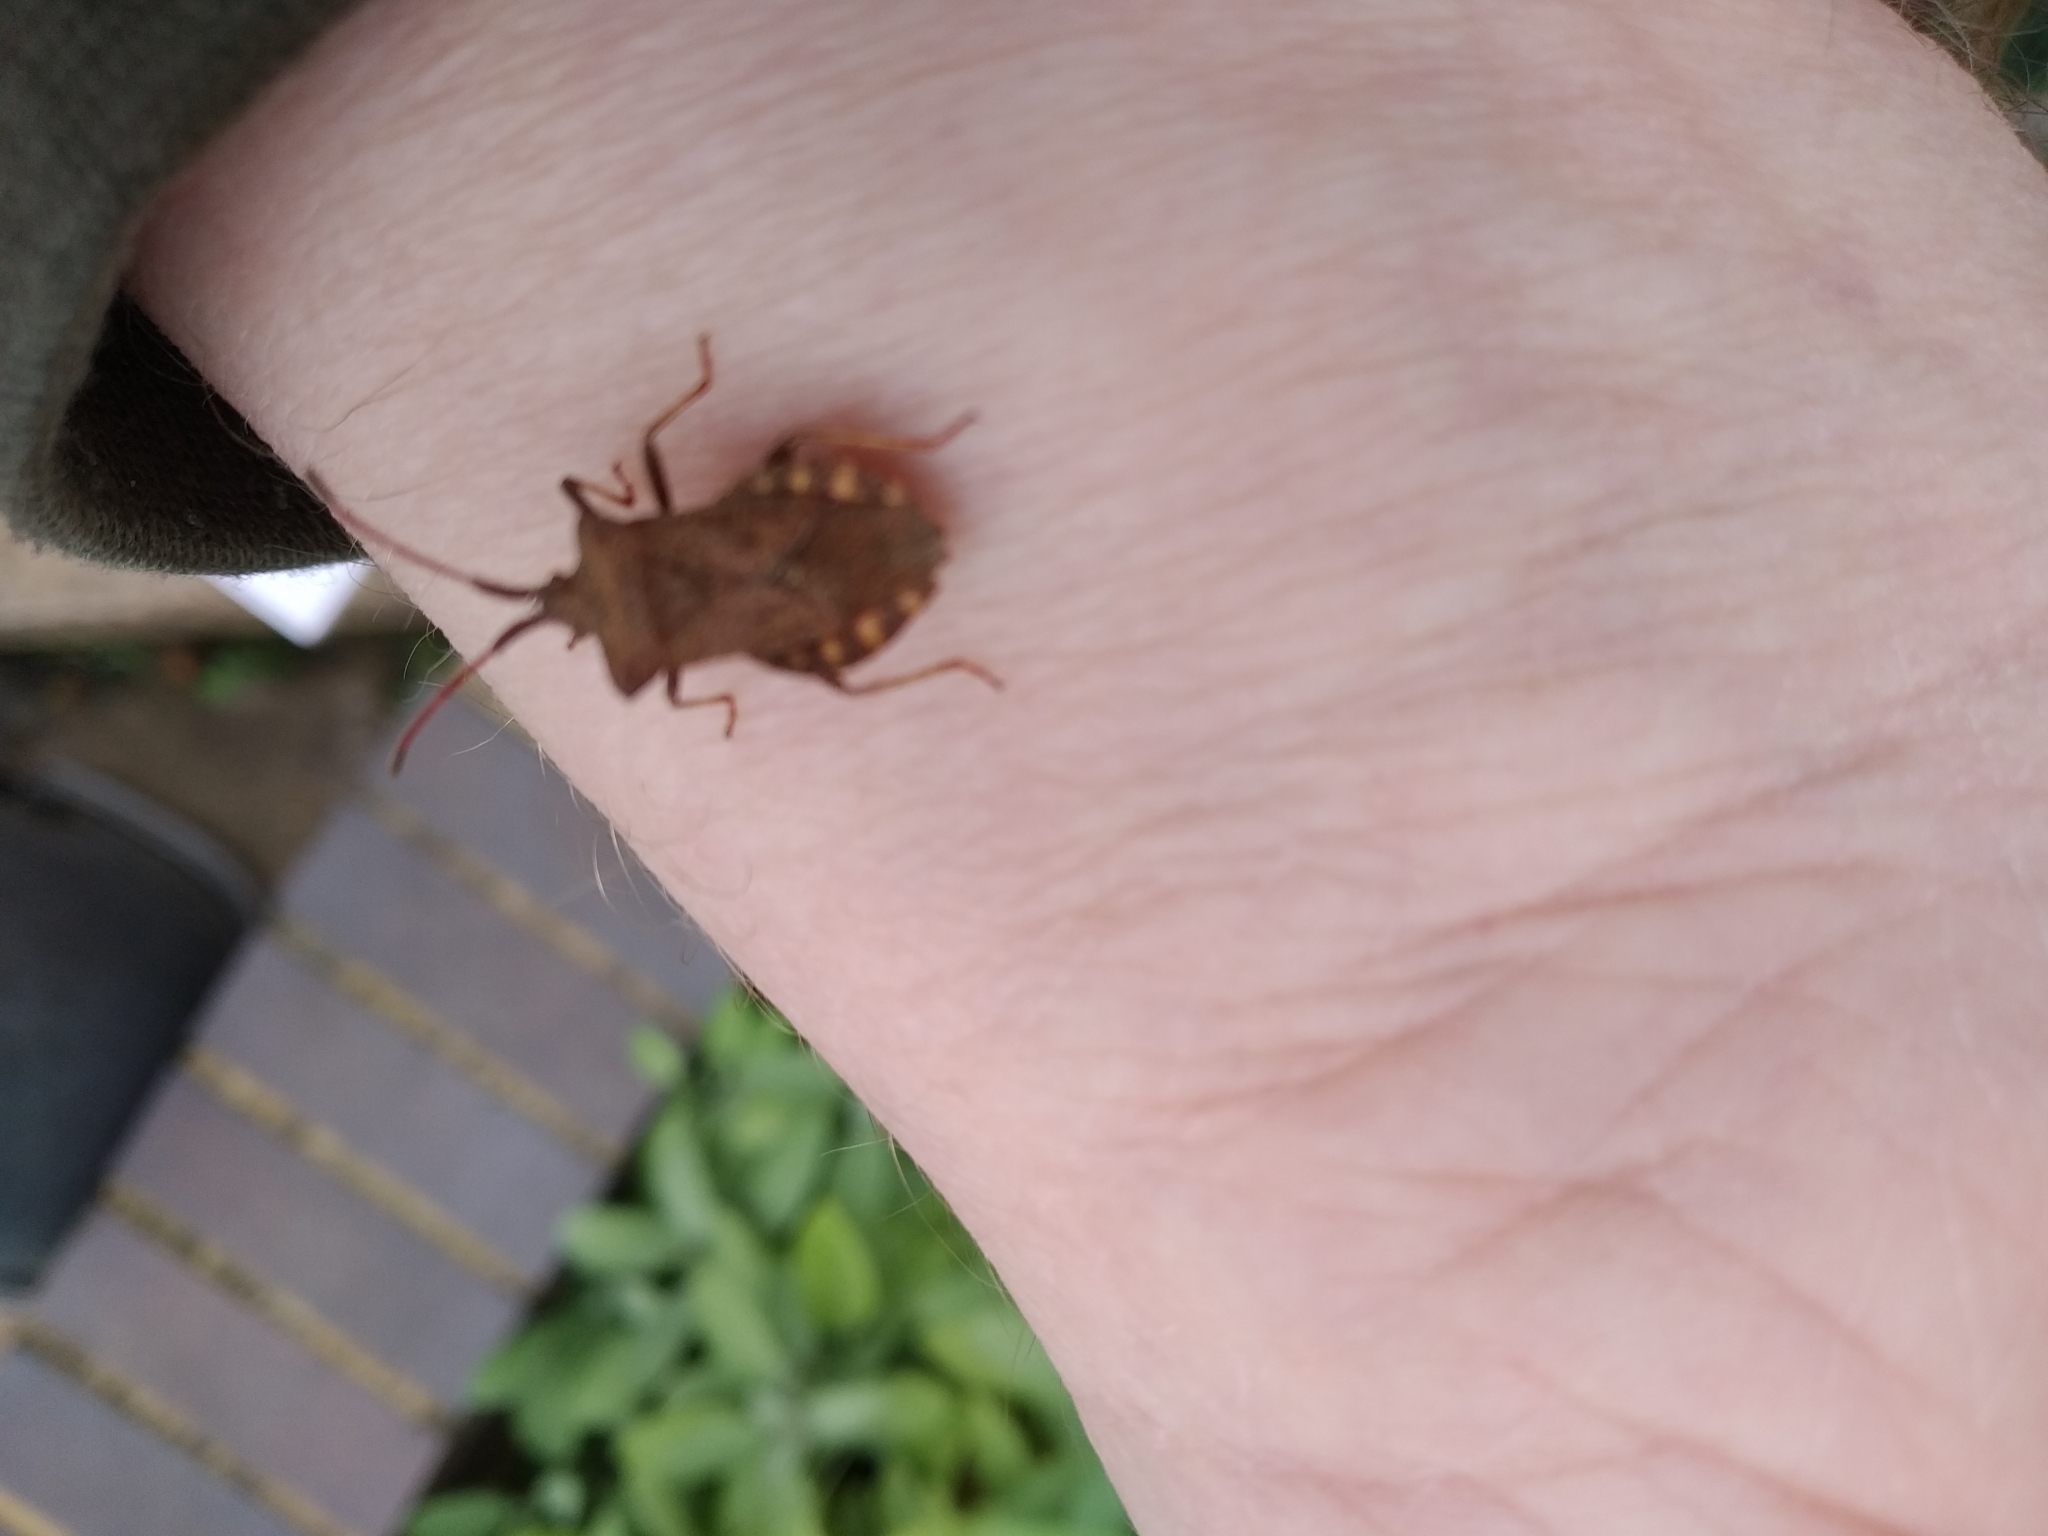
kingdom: Animalia
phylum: Arthropoda
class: Insecta
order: Hemiptera
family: Coreidae
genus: Coreus
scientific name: Coreus marginatus
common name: Dock bug
